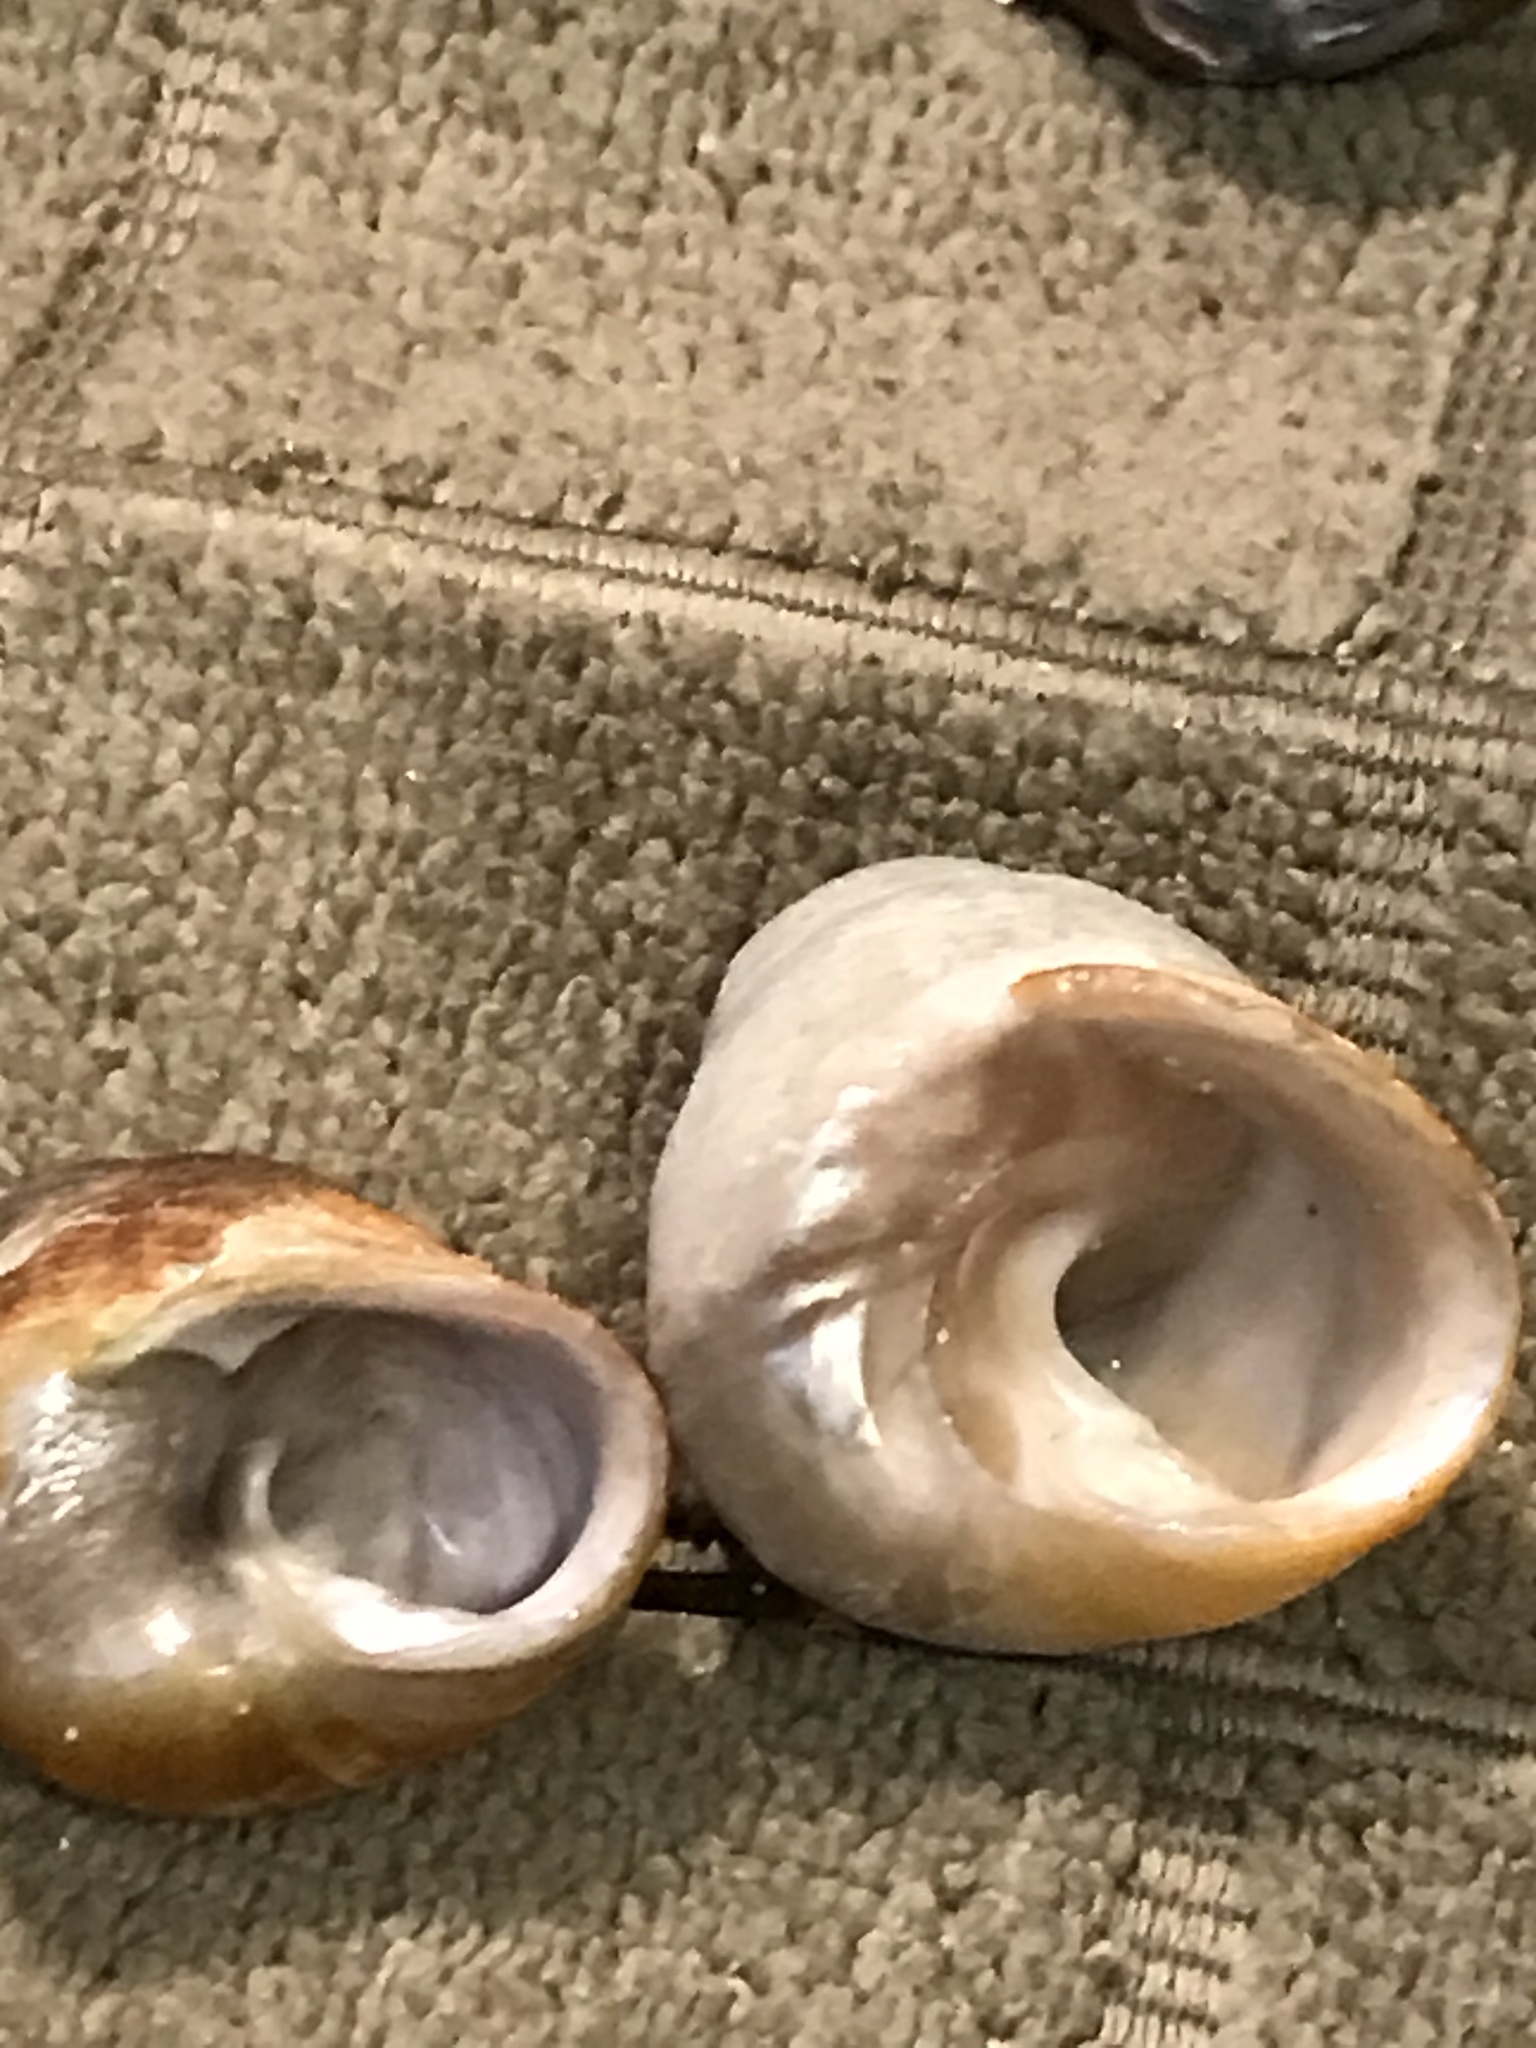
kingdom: Animalia
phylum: Mollusca
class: Gastropoda
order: Trochida
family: Tegulidae
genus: Tegula
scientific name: Tegula brunnea
